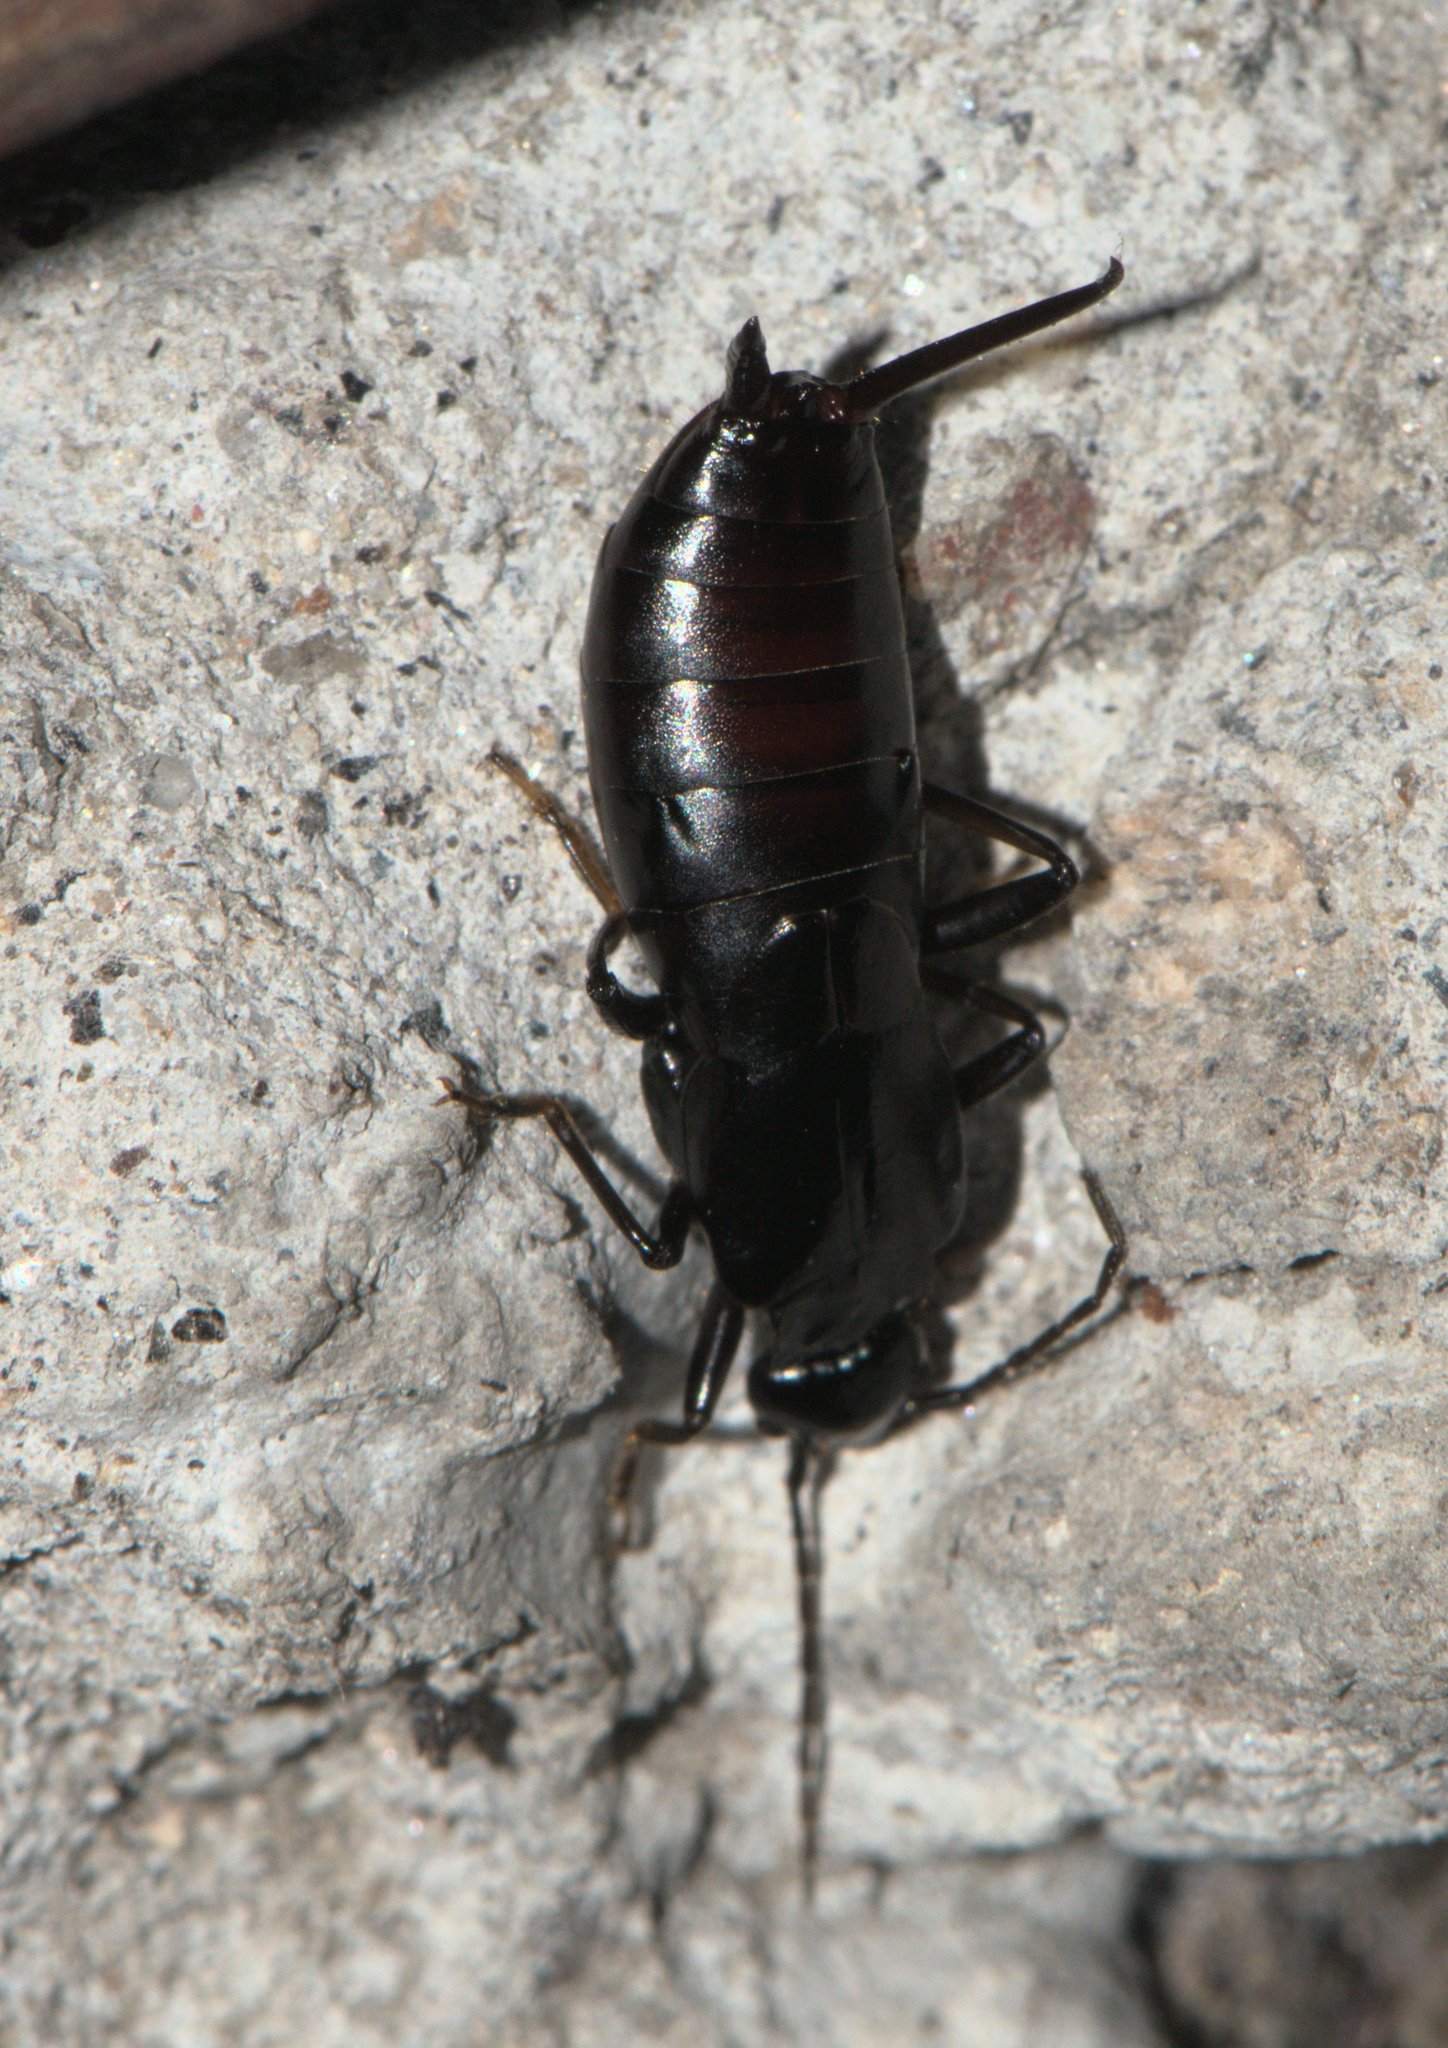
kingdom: Animalia
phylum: Arthropoda
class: Insecta
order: Dermaptera
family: Forficulidae
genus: Oreasiobia
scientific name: Oreasiobia stoliczkae
